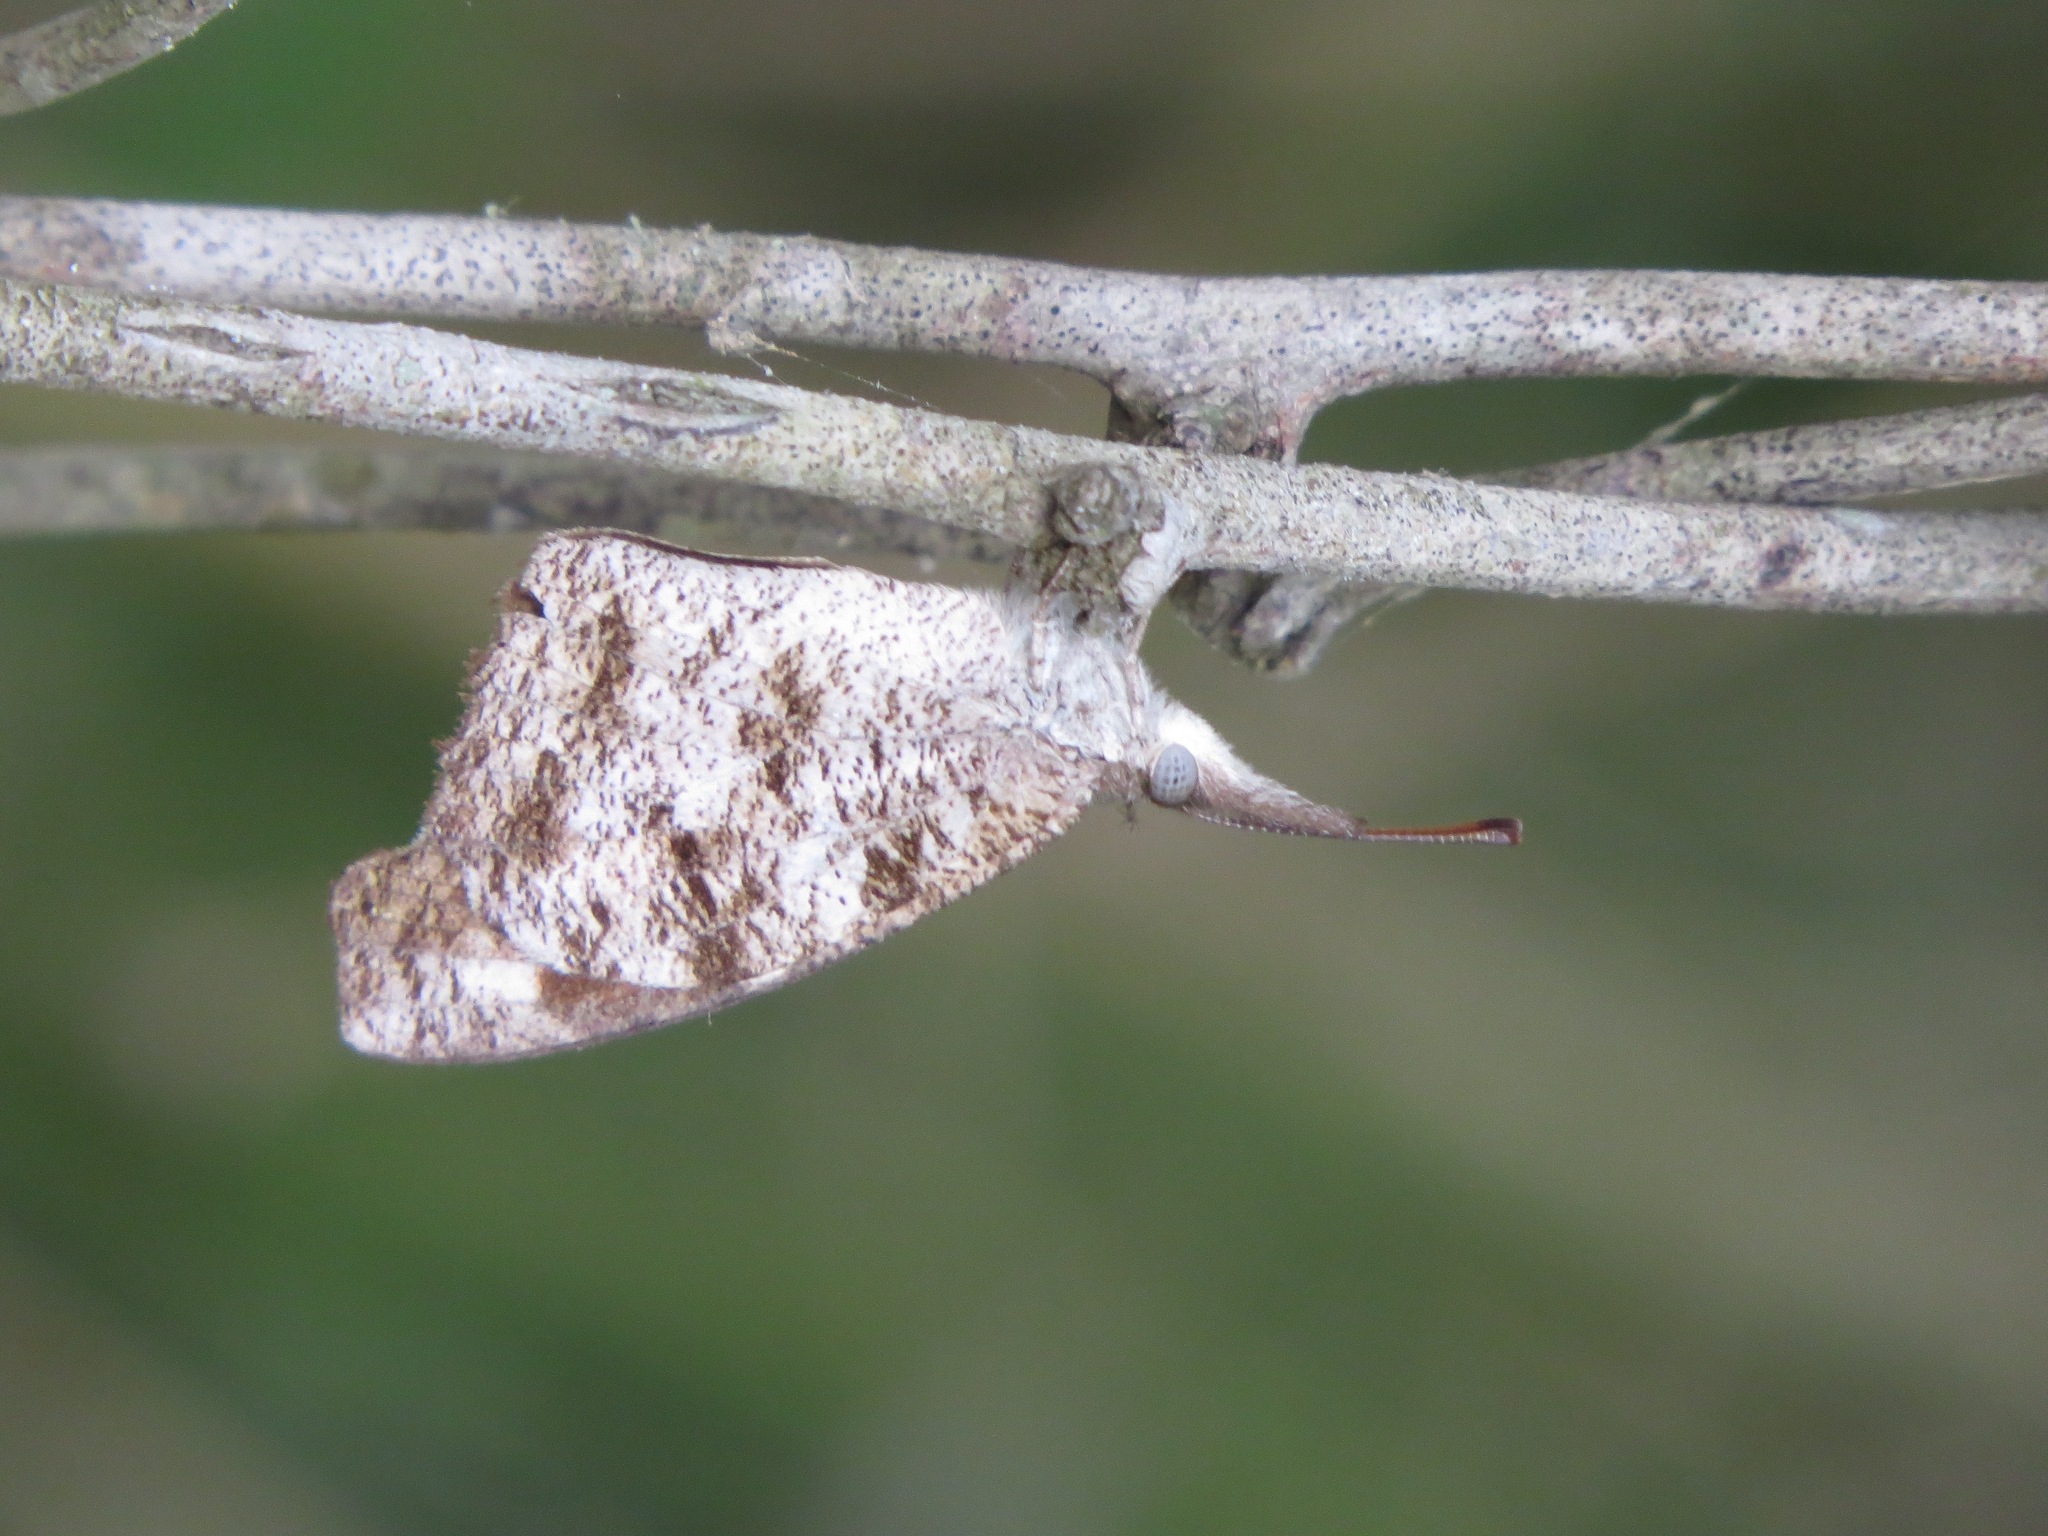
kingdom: Animalia
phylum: Arthropoda
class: Insecta
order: Lepidoptera
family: Nymphalidae
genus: Libytheana
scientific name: Libytheana carinenta
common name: American snout
